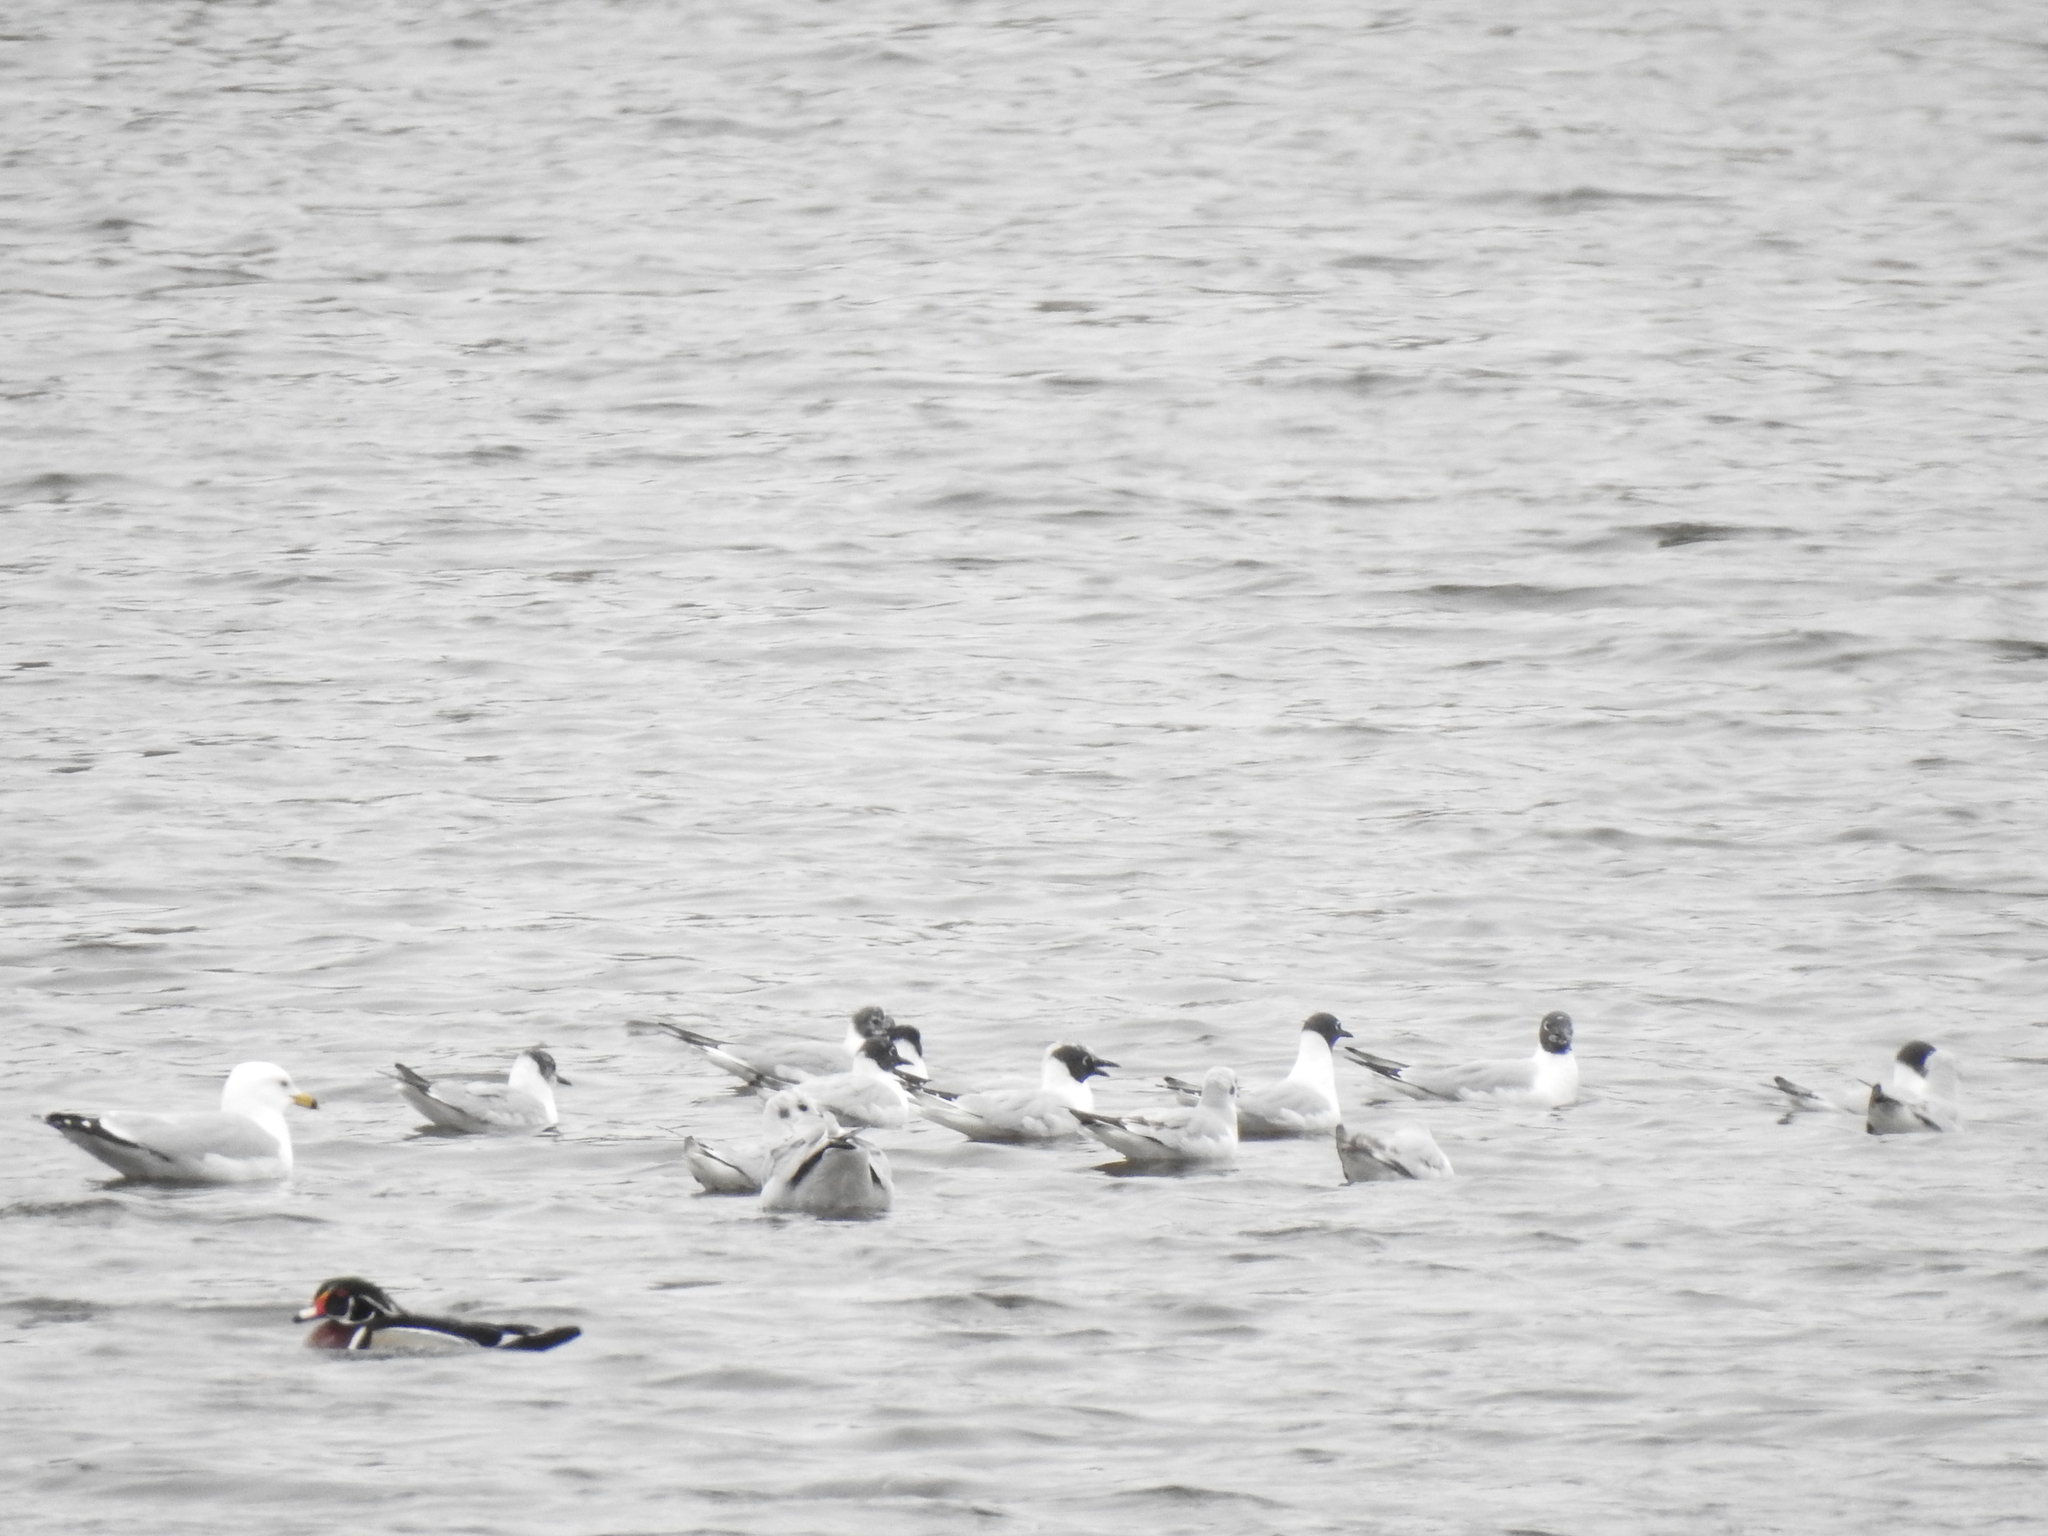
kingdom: Animalia
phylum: Chordata
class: Aves
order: Charadriiformes
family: Laridae
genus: Chroicocephalus
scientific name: Chroicocephalus philadelphia
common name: Bonaparte's gull
